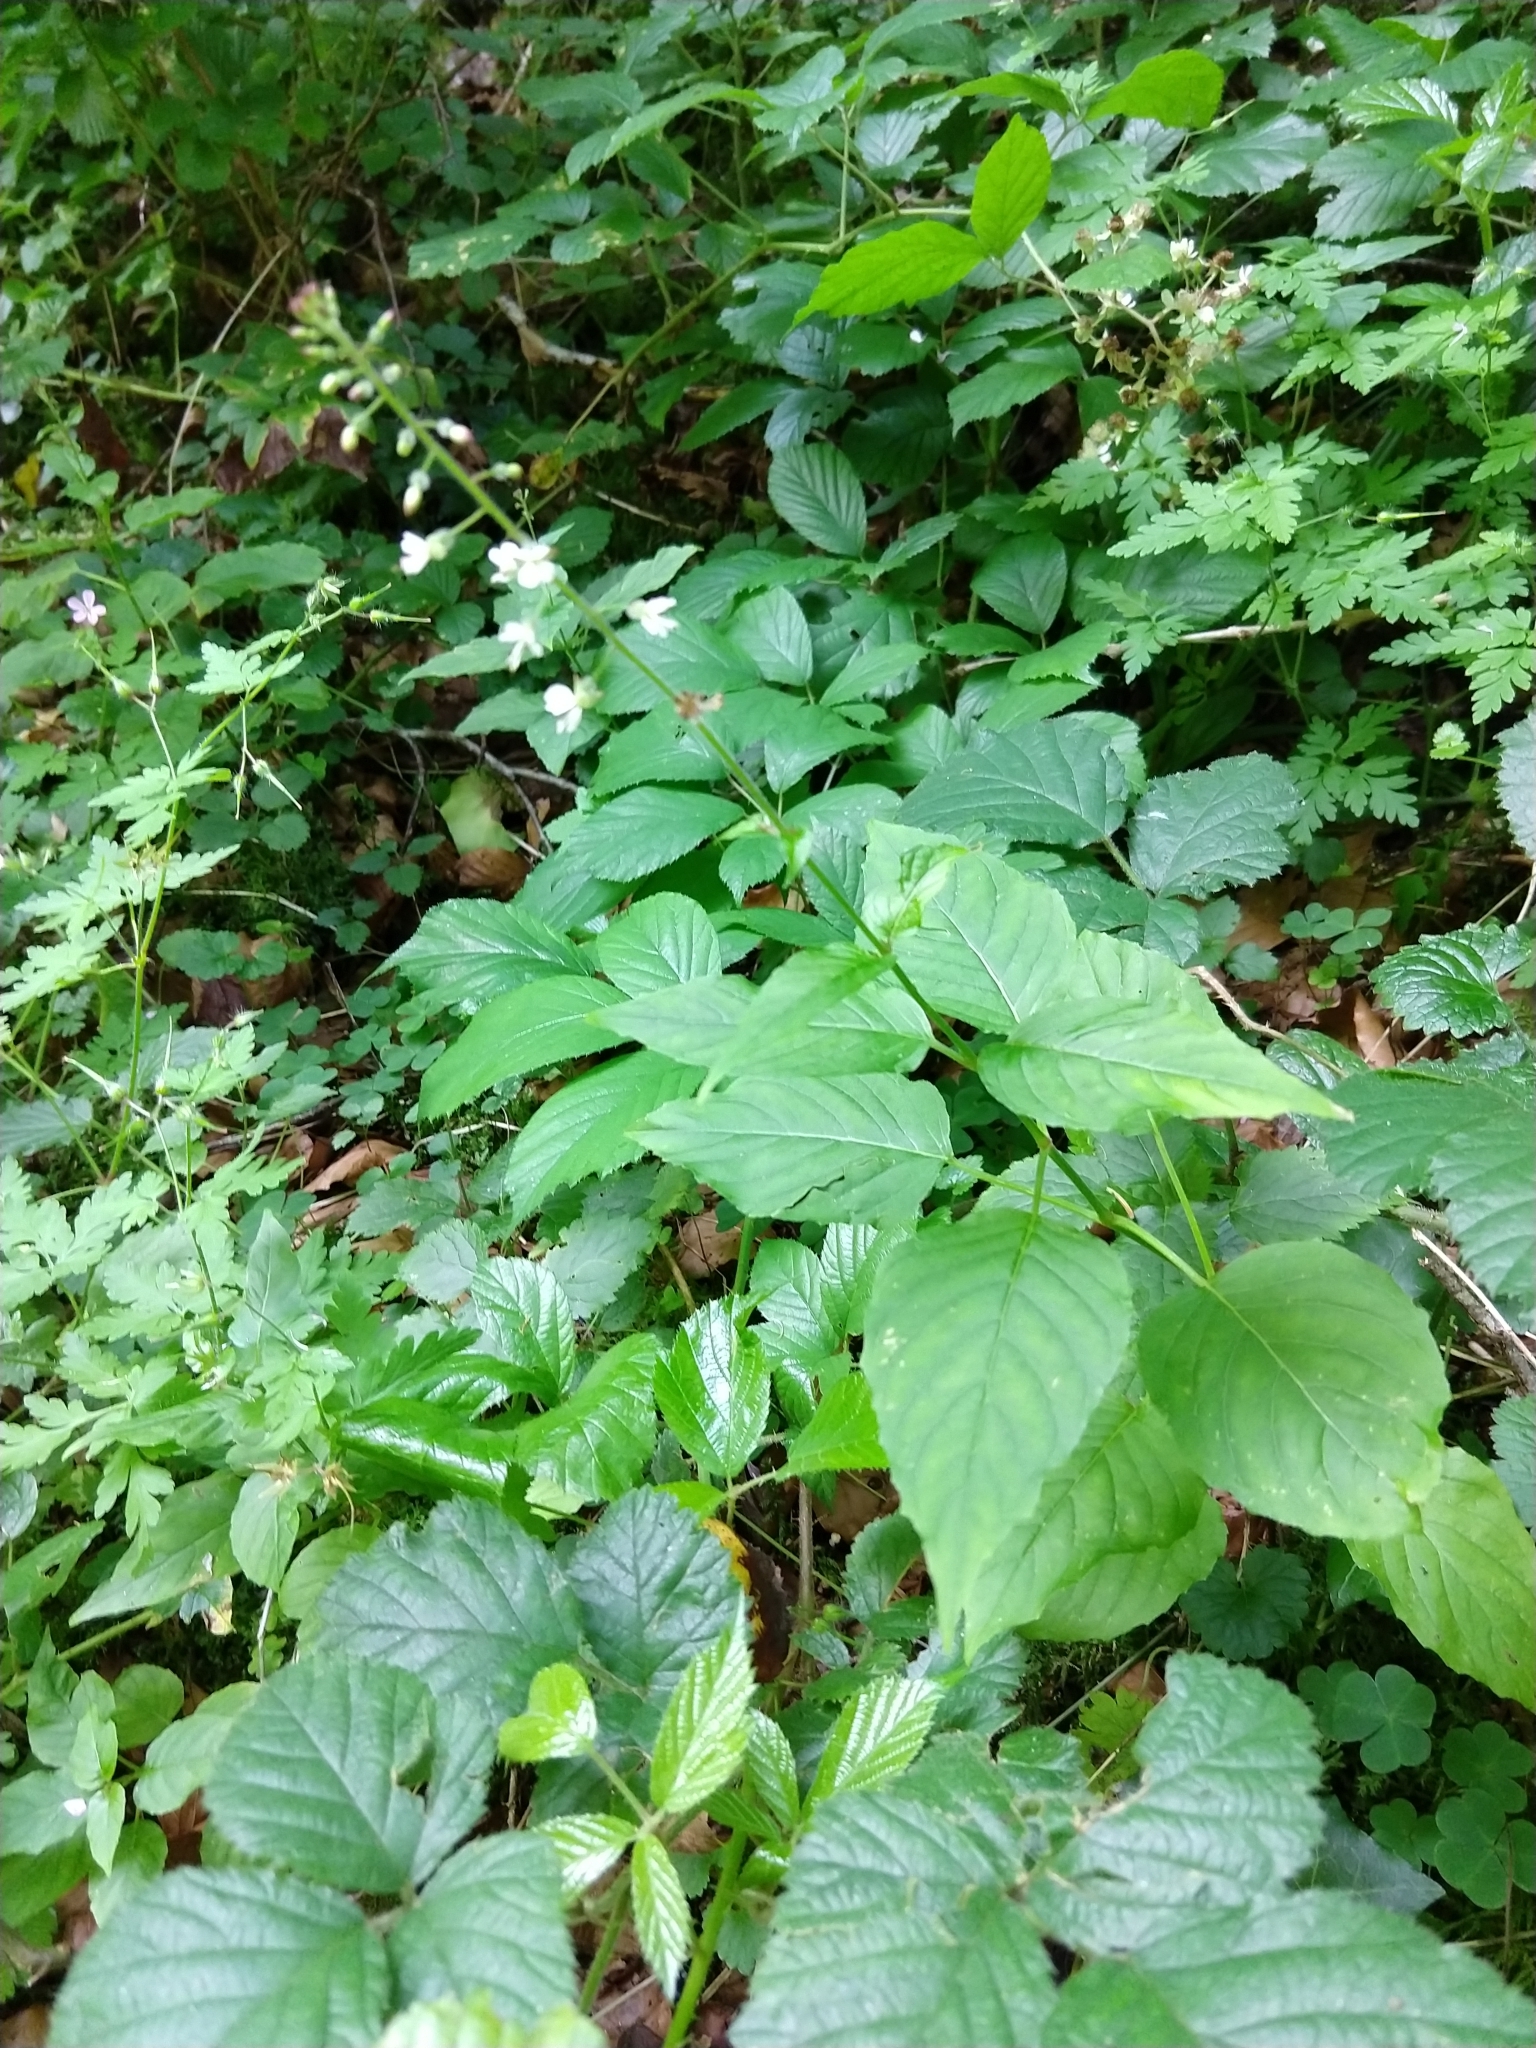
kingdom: Plantae
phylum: Tracheophyta
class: Magnoliopsida
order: Myrtales
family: Onagraceae
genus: Circaea
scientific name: Circaea lutetiana
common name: Enchanter's-nightshade
